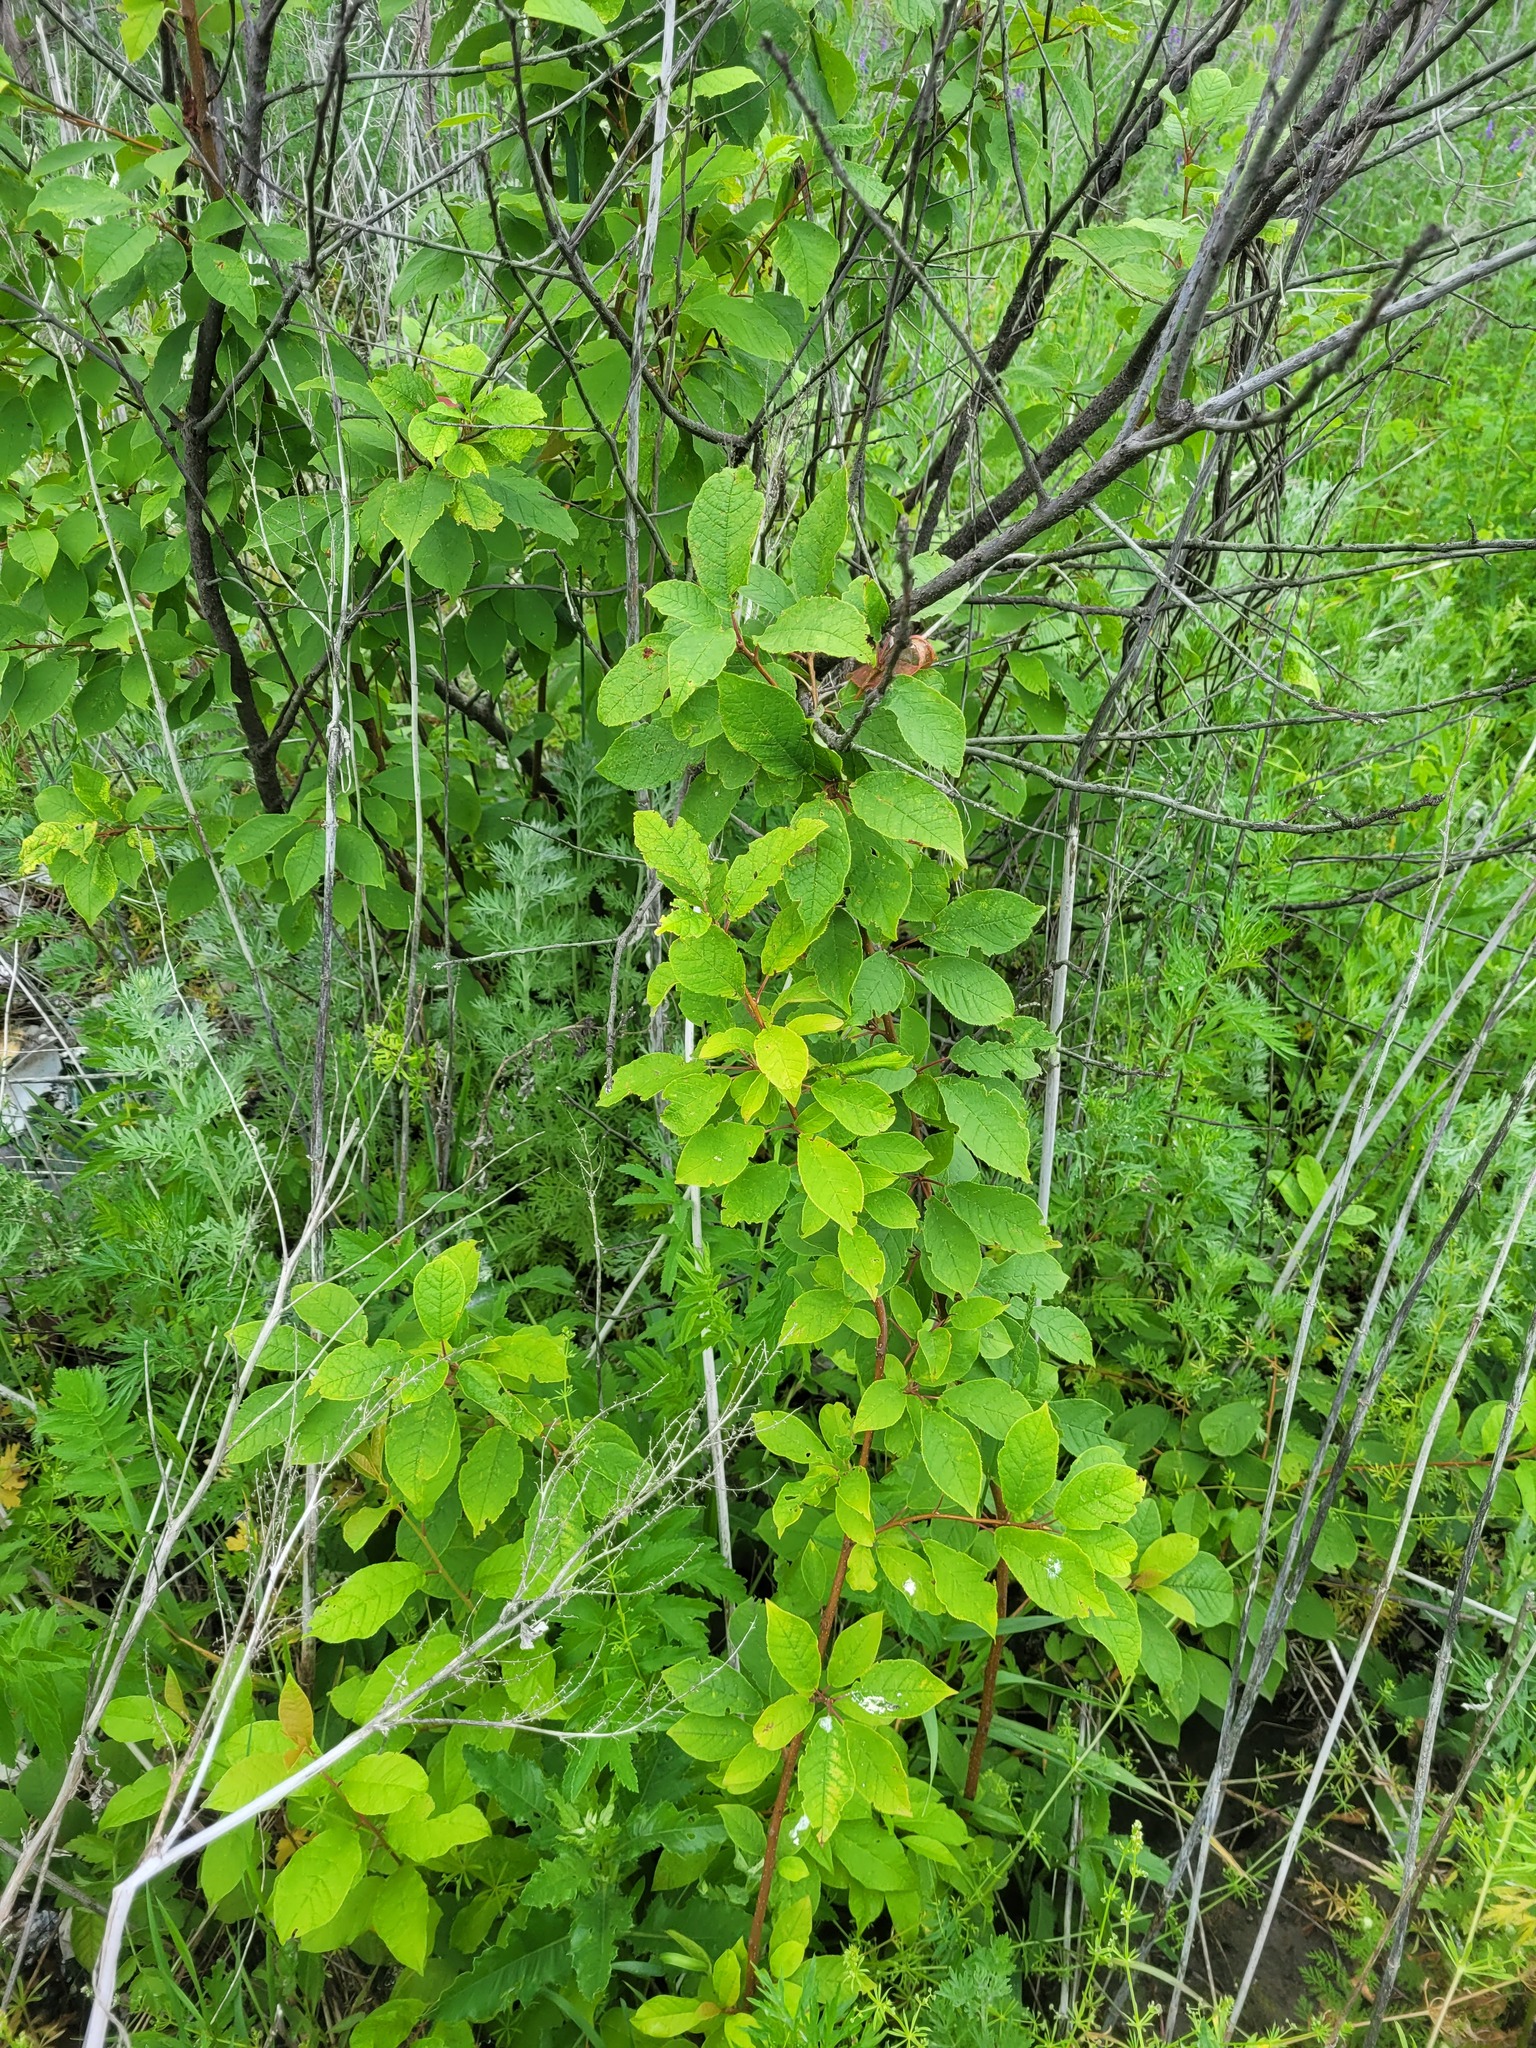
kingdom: Plantae
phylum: Tracheophyta
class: Magnoliopsida
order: Rosales
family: Rosaceae
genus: Prunus
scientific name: Prunus virginiana
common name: Chokecherry
